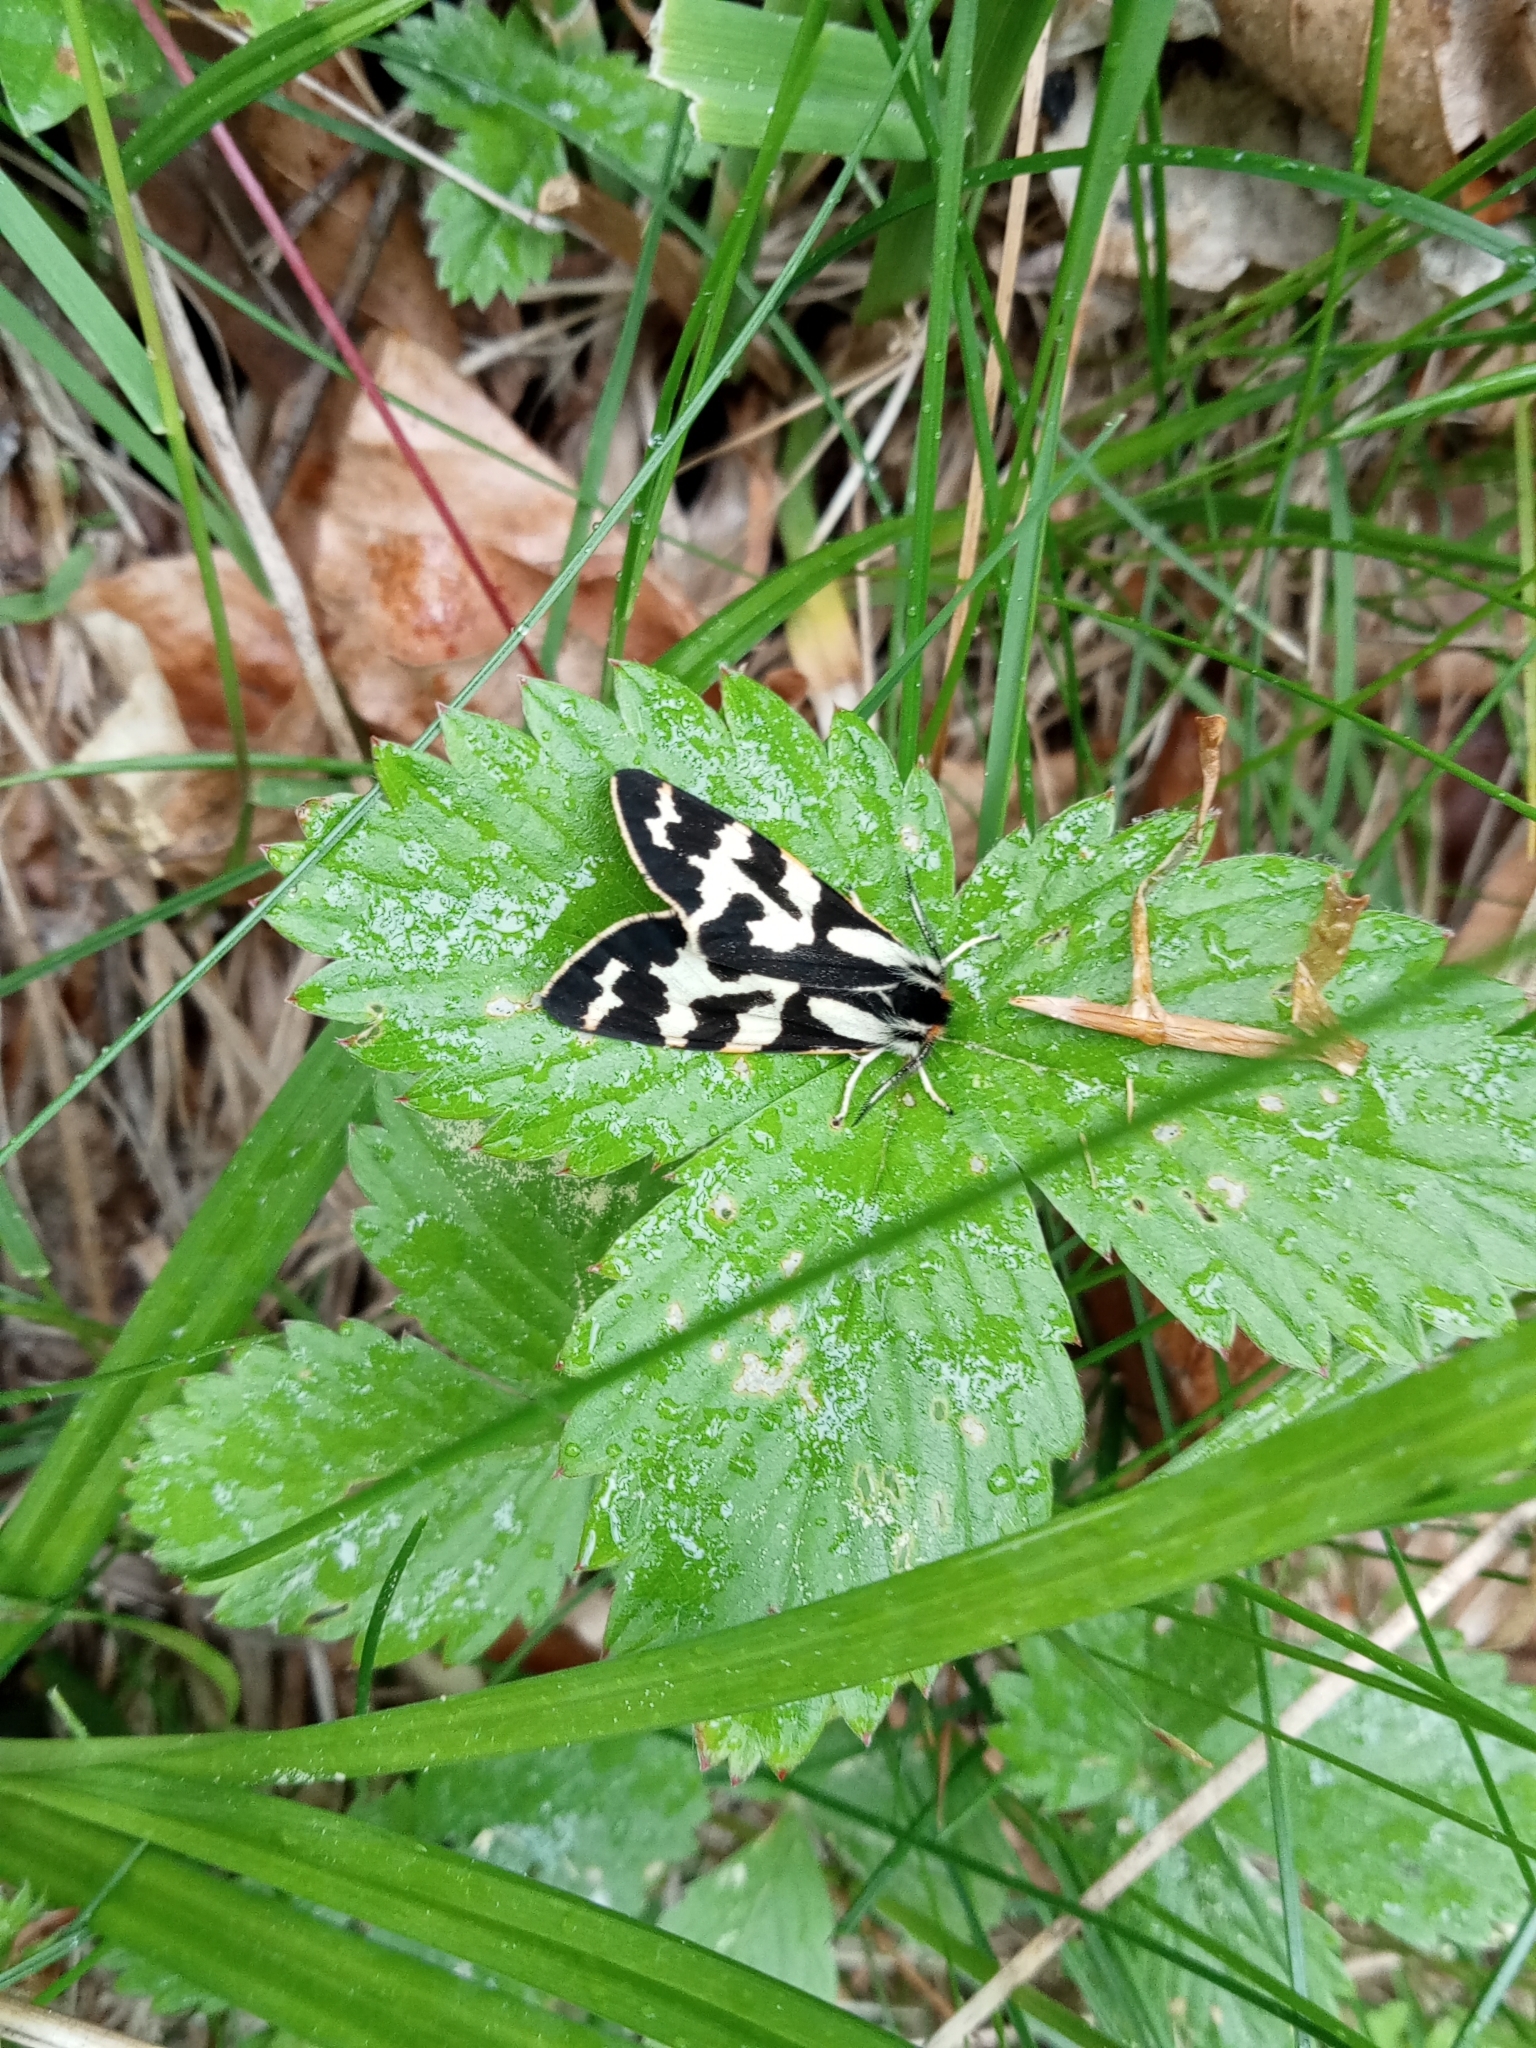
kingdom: Animalia
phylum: Arthropoda
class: Insecta
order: Lepidoptera
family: Erebidae
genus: Parasemia
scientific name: Parasemia plantaginis
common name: Wood tiger
